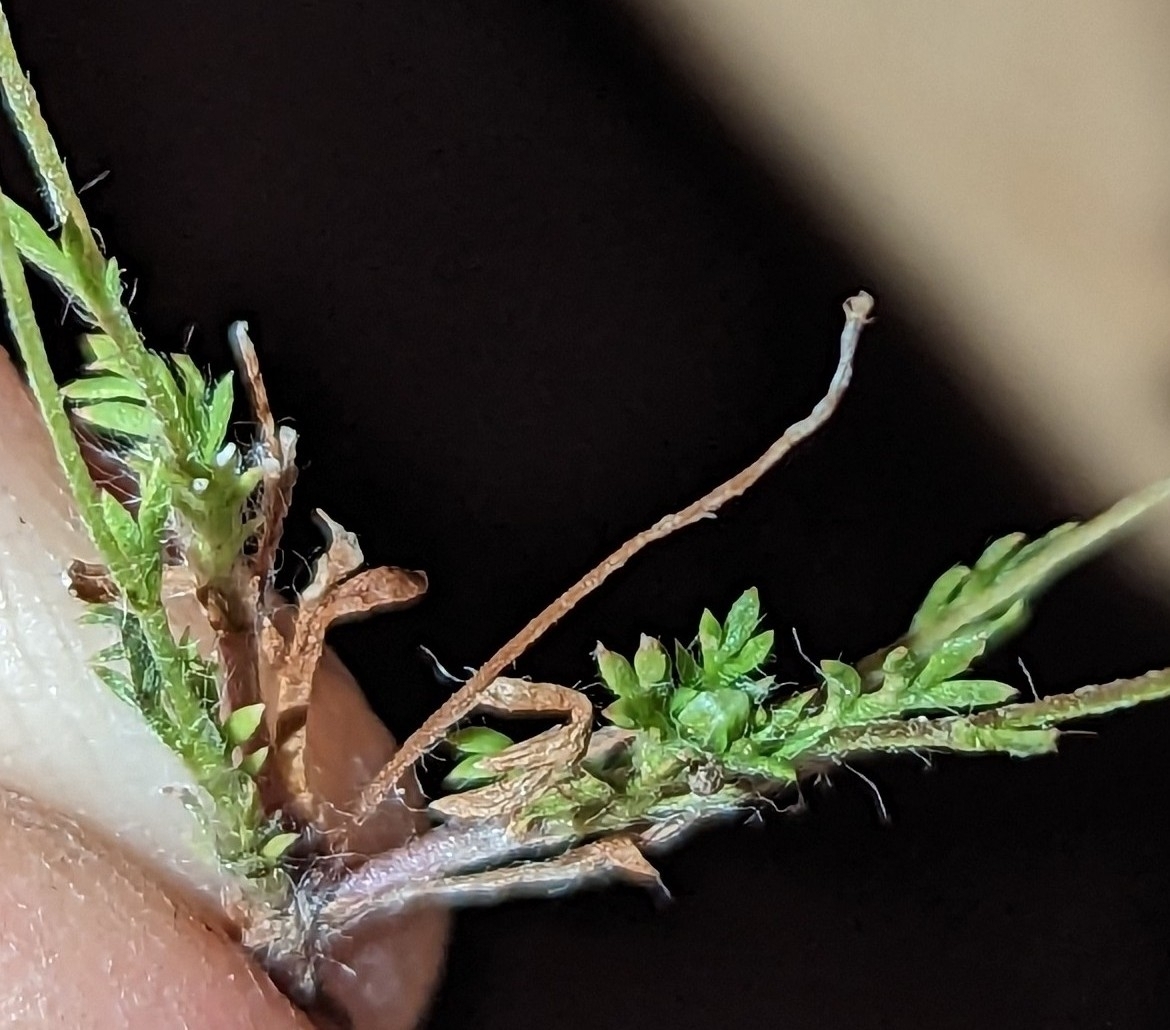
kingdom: Plantae
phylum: Tracheophyta
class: Magnoliopsida
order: Asterales
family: Asteraceae
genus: Cotula
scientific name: Cotula australis
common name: Australian waterbuttons
